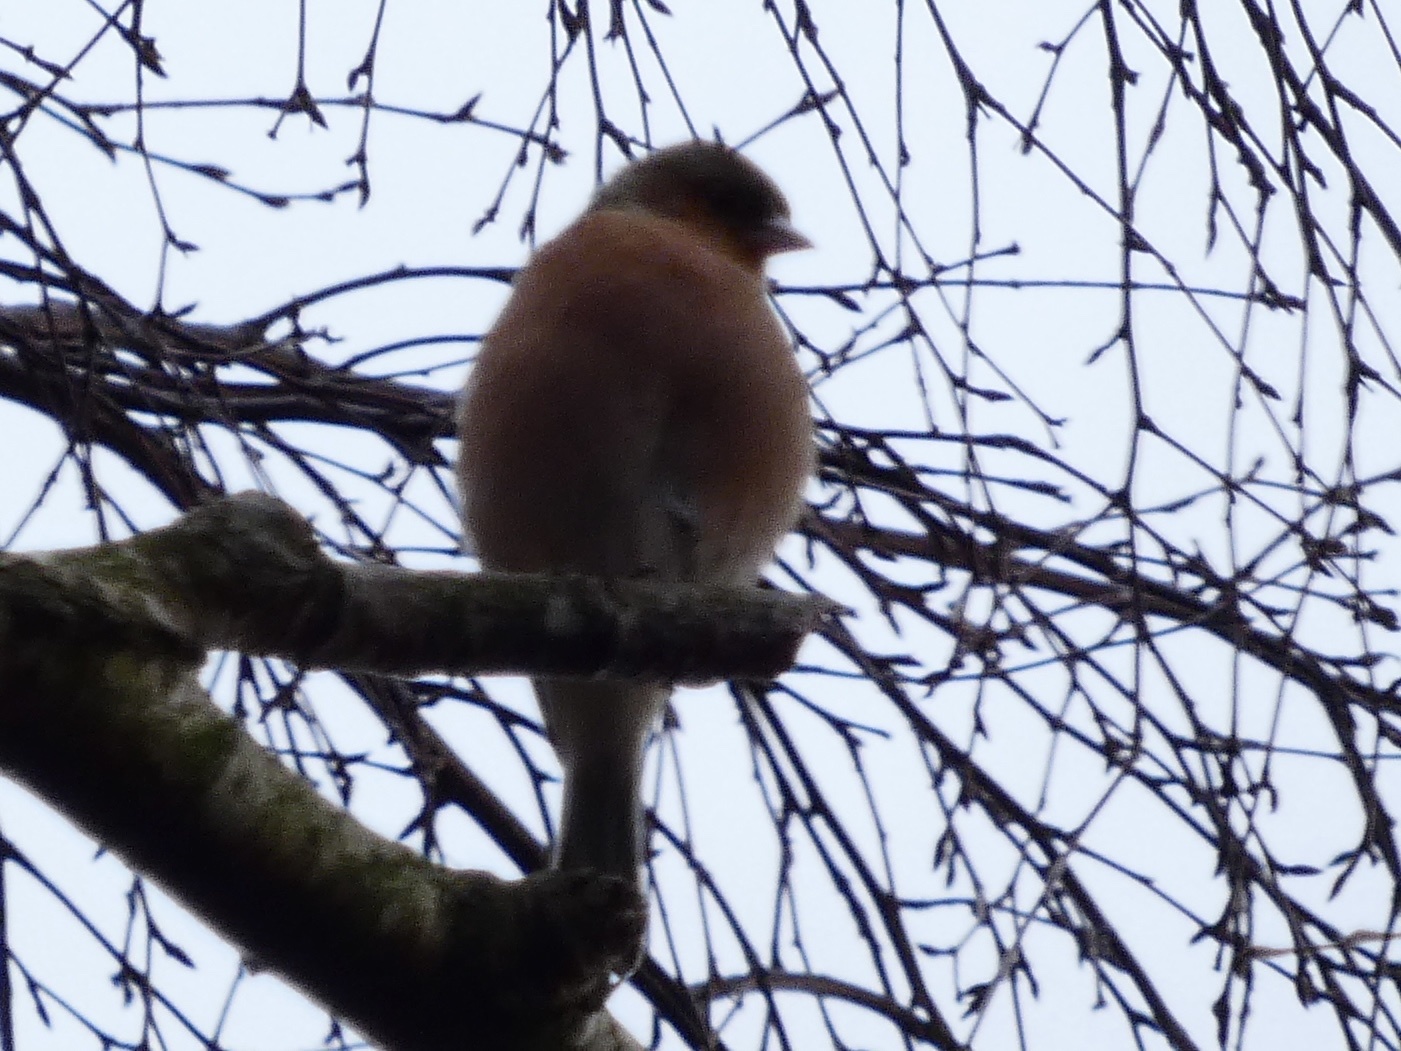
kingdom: Animalia
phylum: Chordata
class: Aves
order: Passeriformes
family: Fringillidae
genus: Fringilla
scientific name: Fringilla coelebs
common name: Common chaffinch
